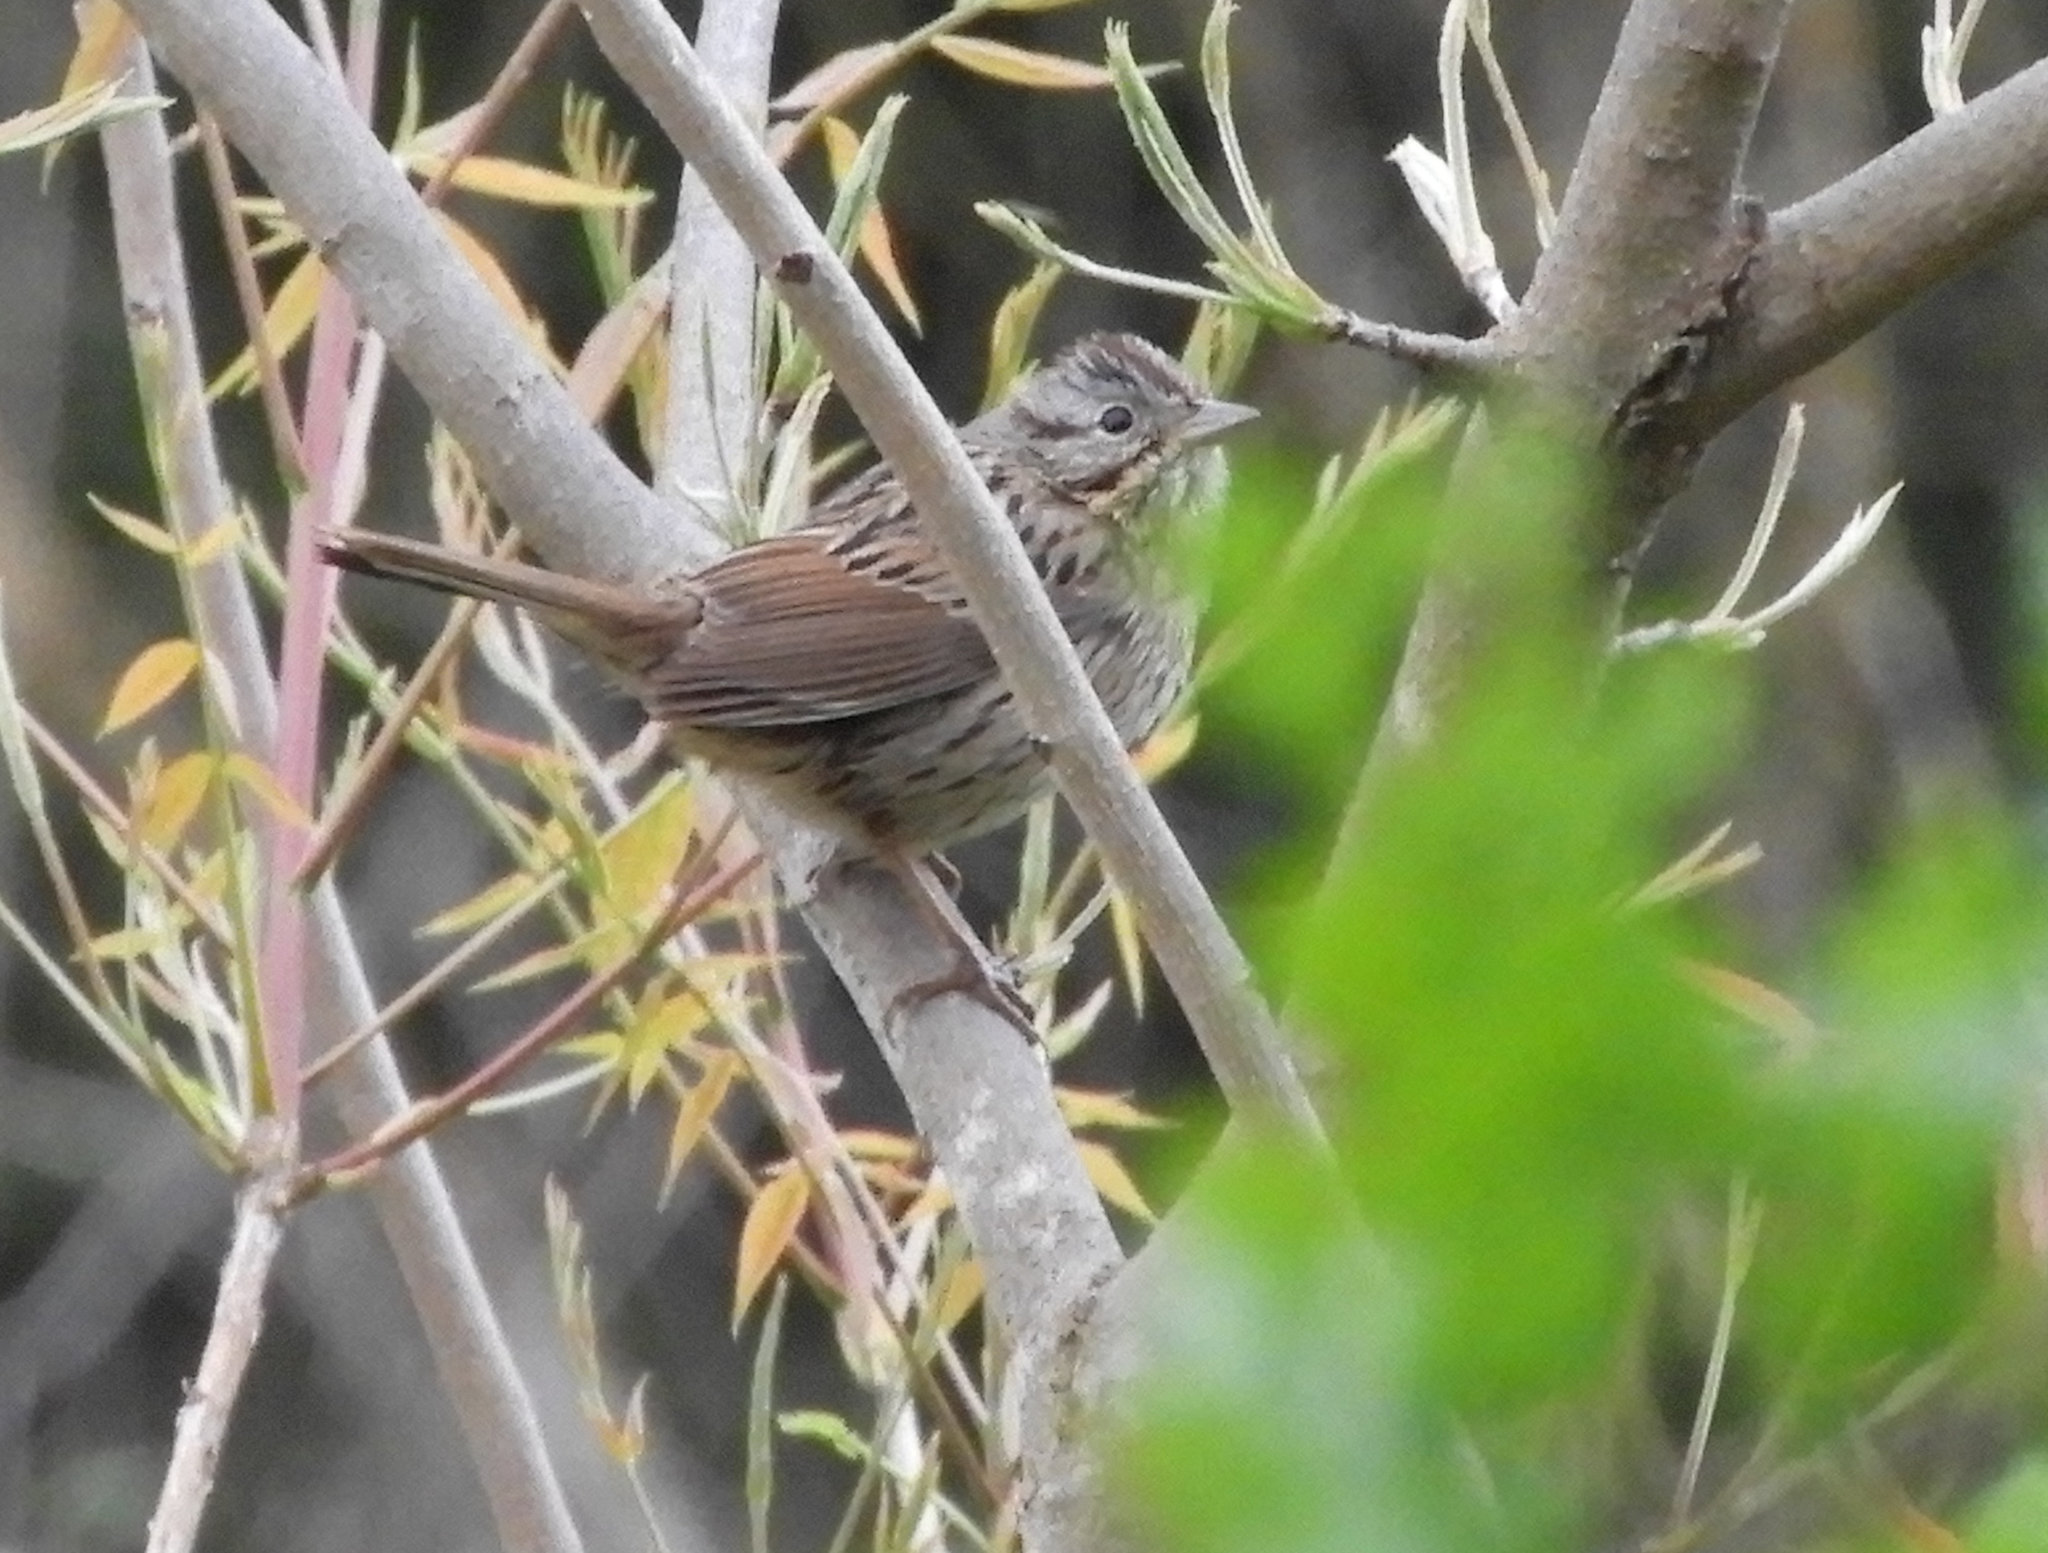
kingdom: Animalia
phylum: Chordata
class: Aves
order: Passeriformes
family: Passerellidae
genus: Melospiza
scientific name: Melospiza lincolnii
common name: Lincoln's sparrow
